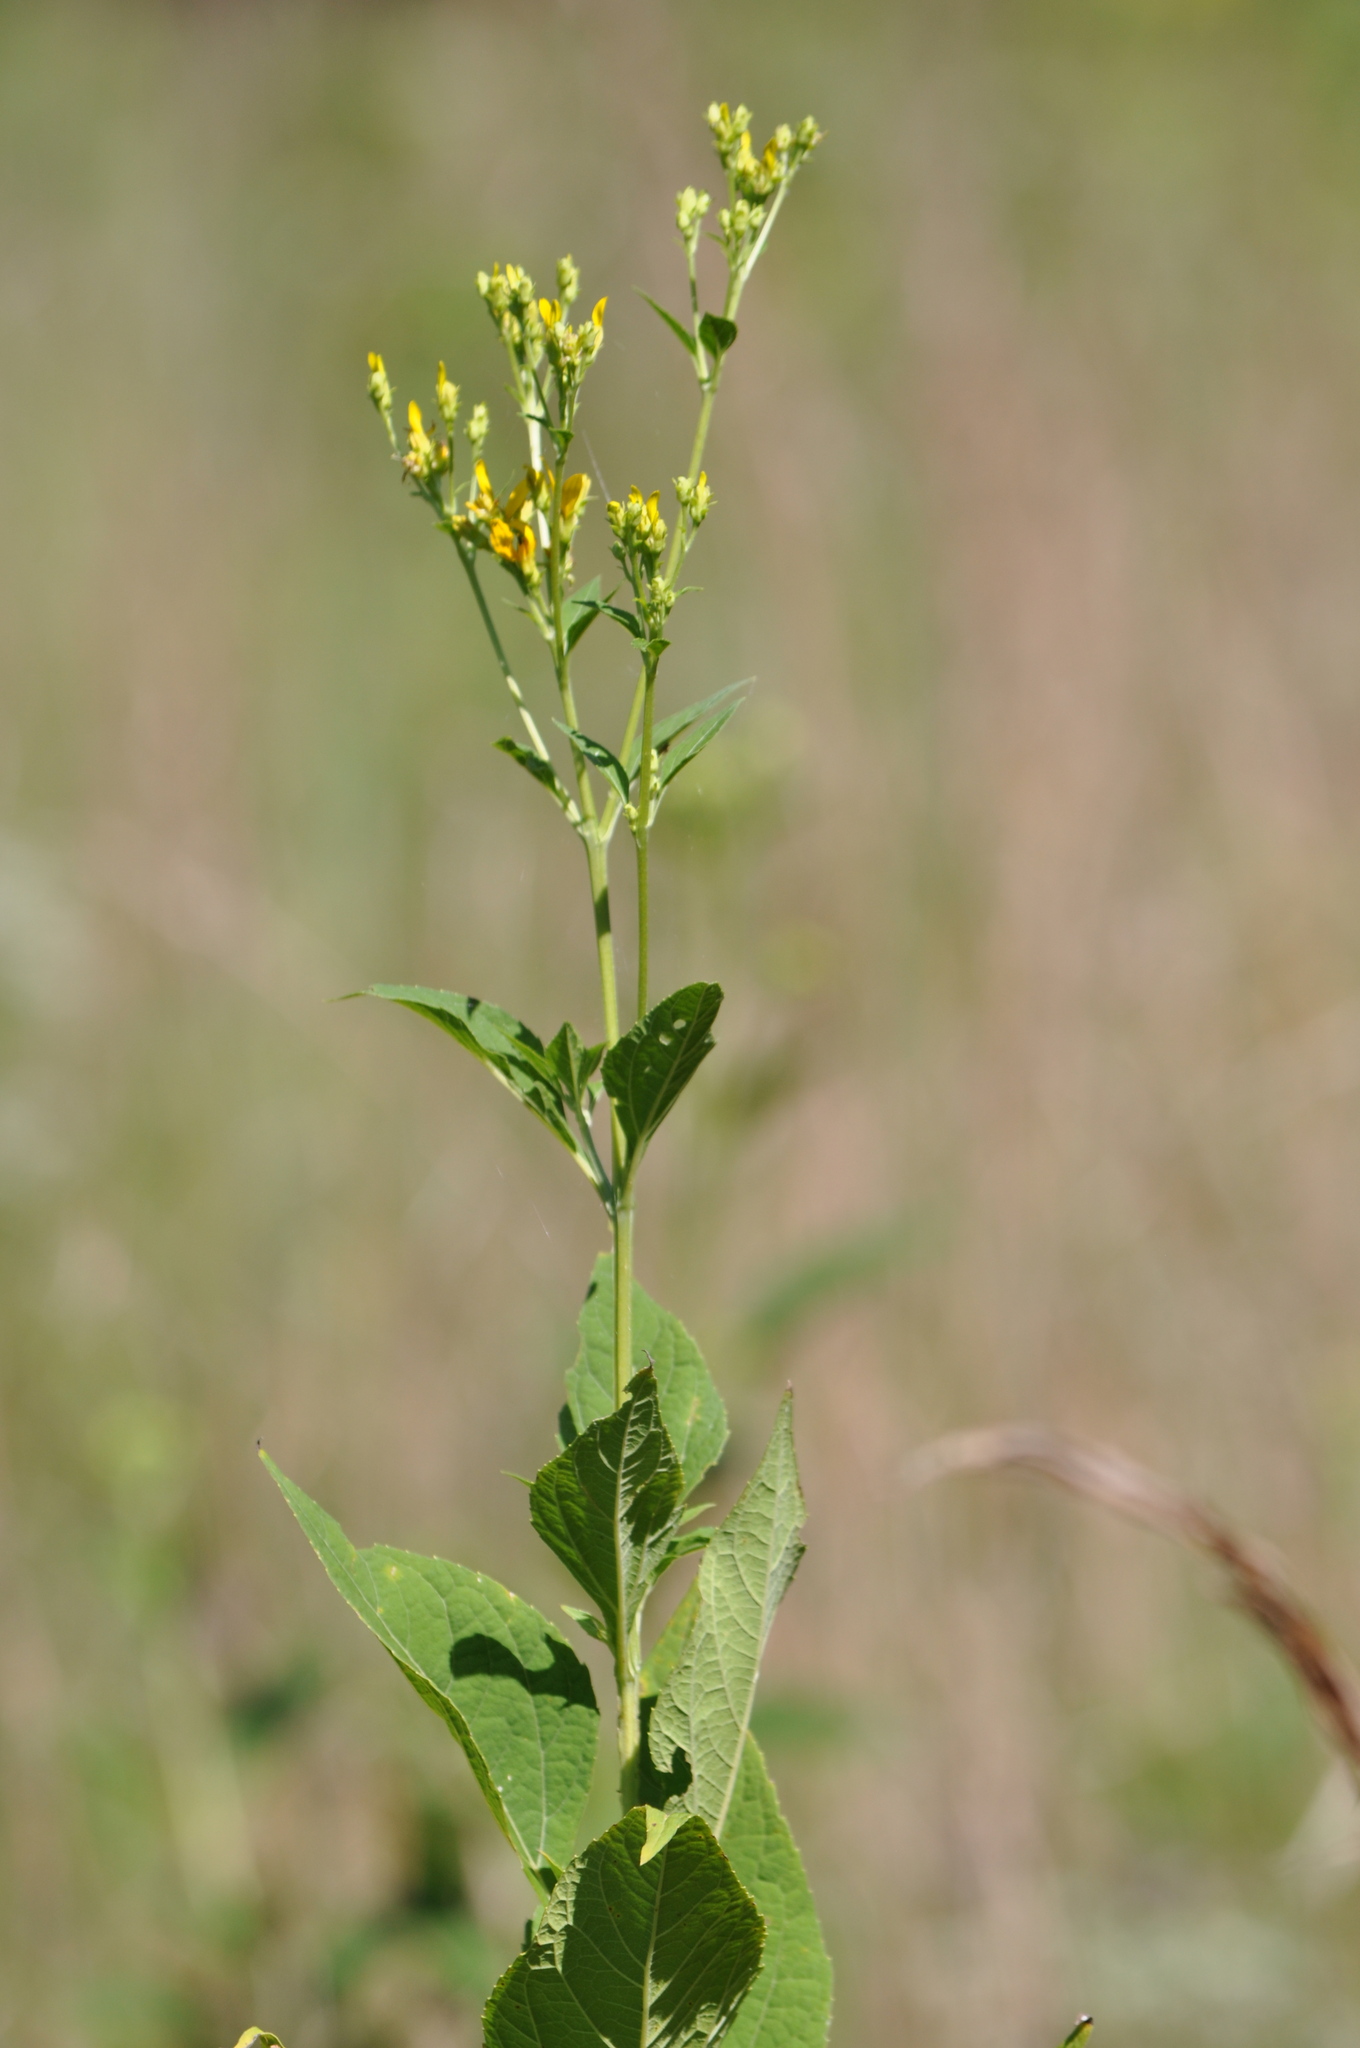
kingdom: Plantae
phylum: Tracheophyta
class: Magnoliopsida
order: Asterales
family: Asteraceae
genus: Verbesina
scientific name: Verbesina occidentalis
